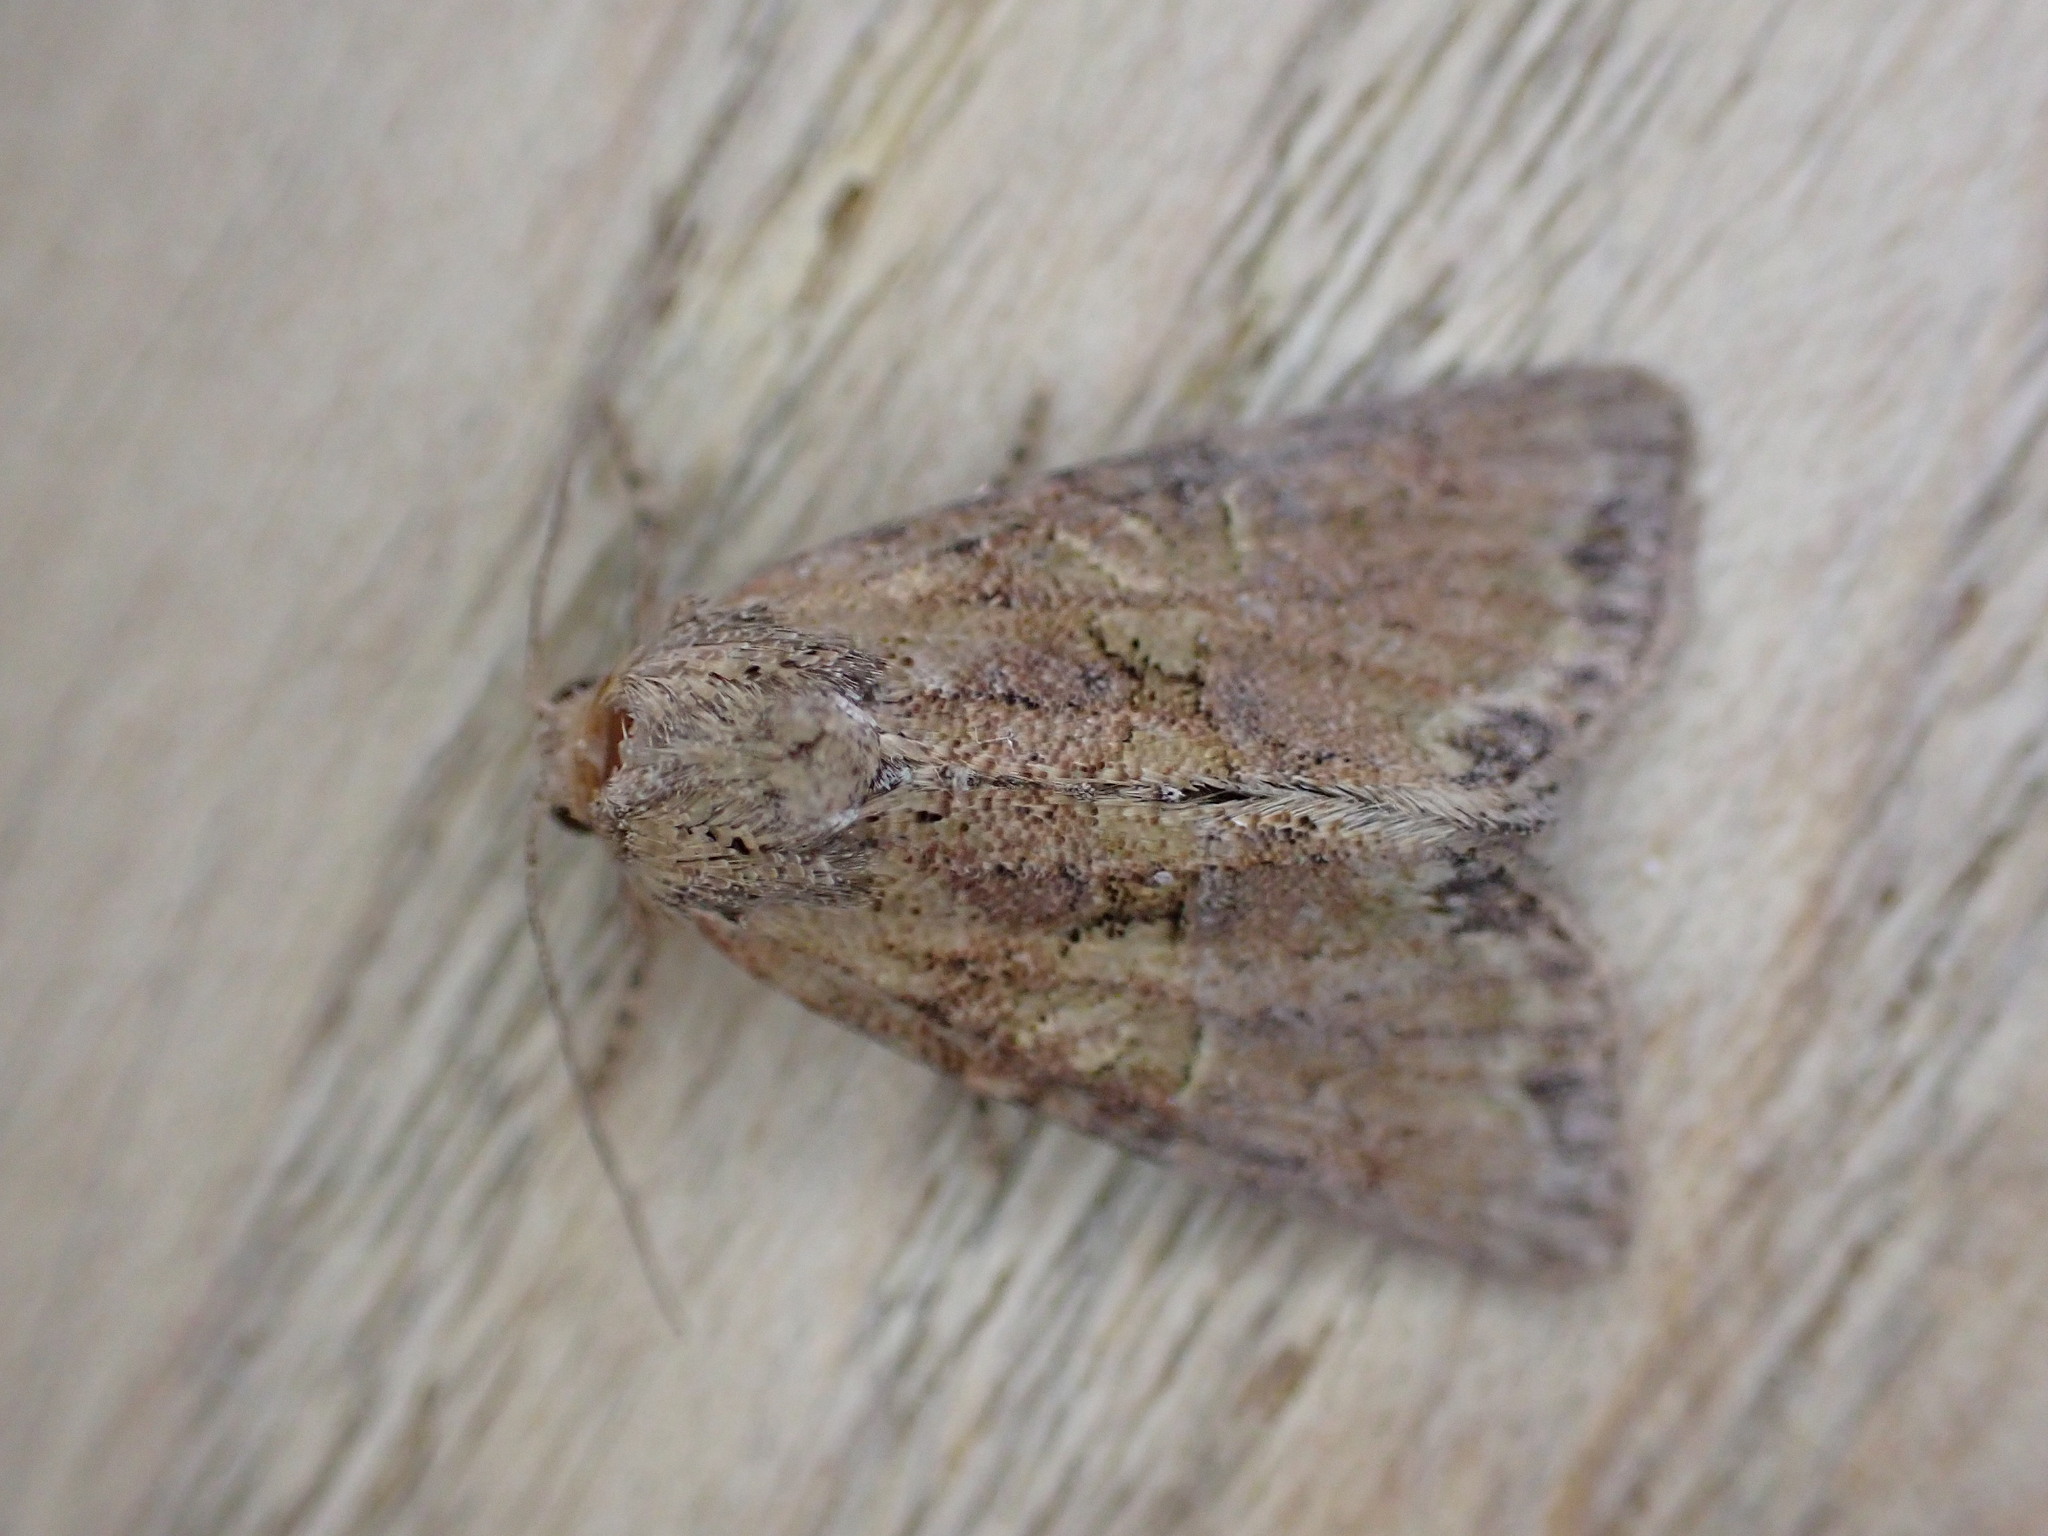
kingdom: Animalia
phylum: Arthropoda
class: Insecta
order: Lepidoptera
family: Noctuidae
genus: Mesoligia
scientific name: Mesoligia furuncula
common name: Cloaked minor
